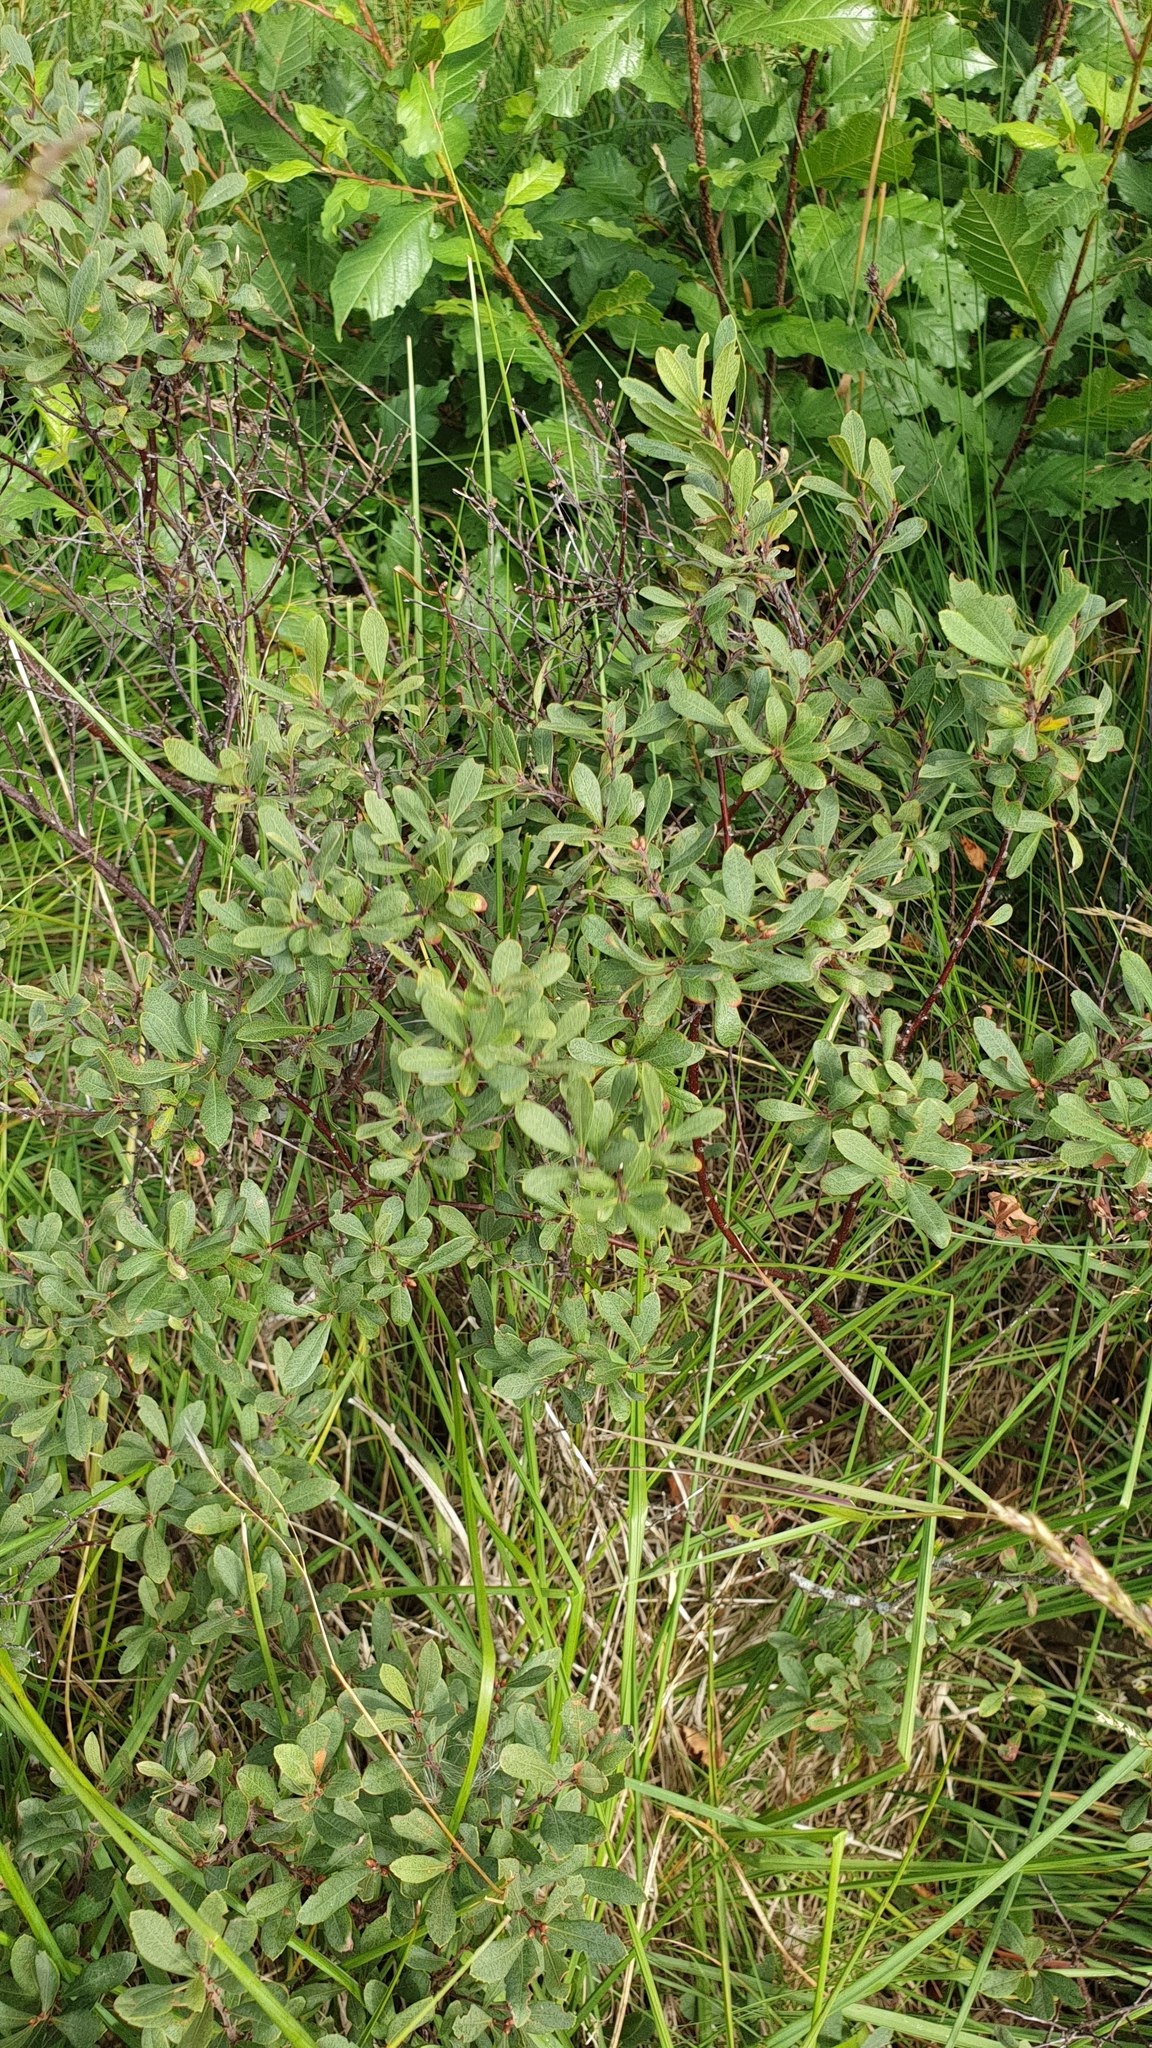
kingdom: Plantae
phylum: Tracheophyta
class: Magnoliopsida
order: Fagales
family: Myricaceae
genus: Myrica
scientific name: Myrica gale
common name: Sweet gale
